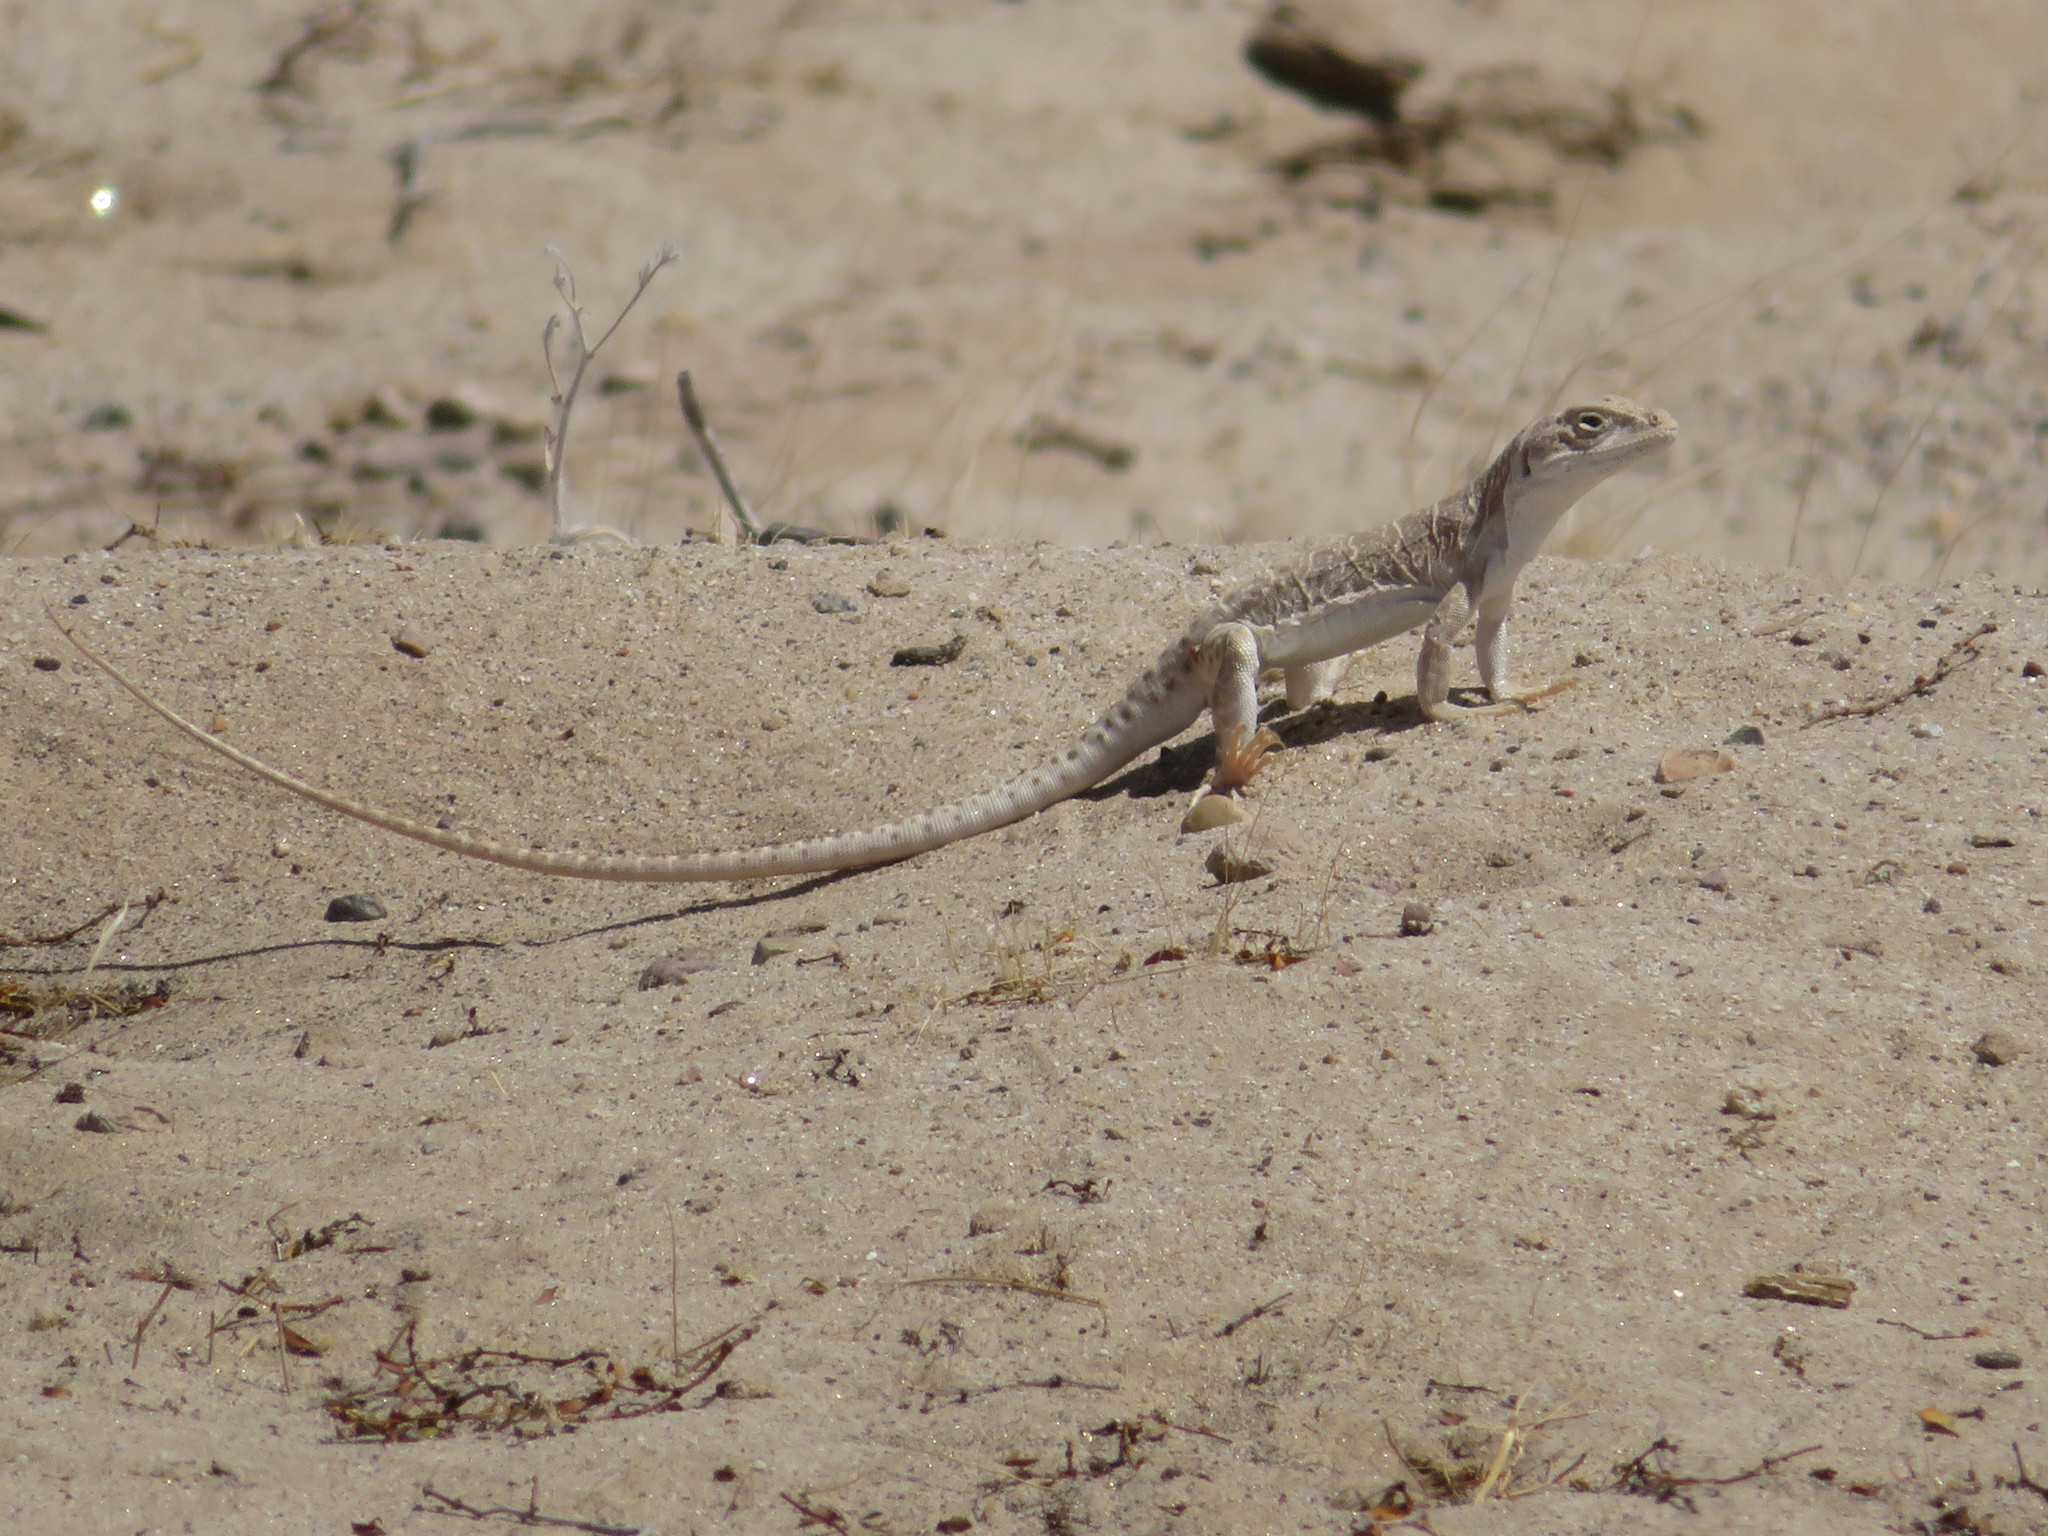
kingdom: Animalia
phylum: Chordata
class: Squamata
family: Crotaphytidae
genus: Gambelia
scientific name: Gambelia wislizenii
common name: Longnose leopard lizard
